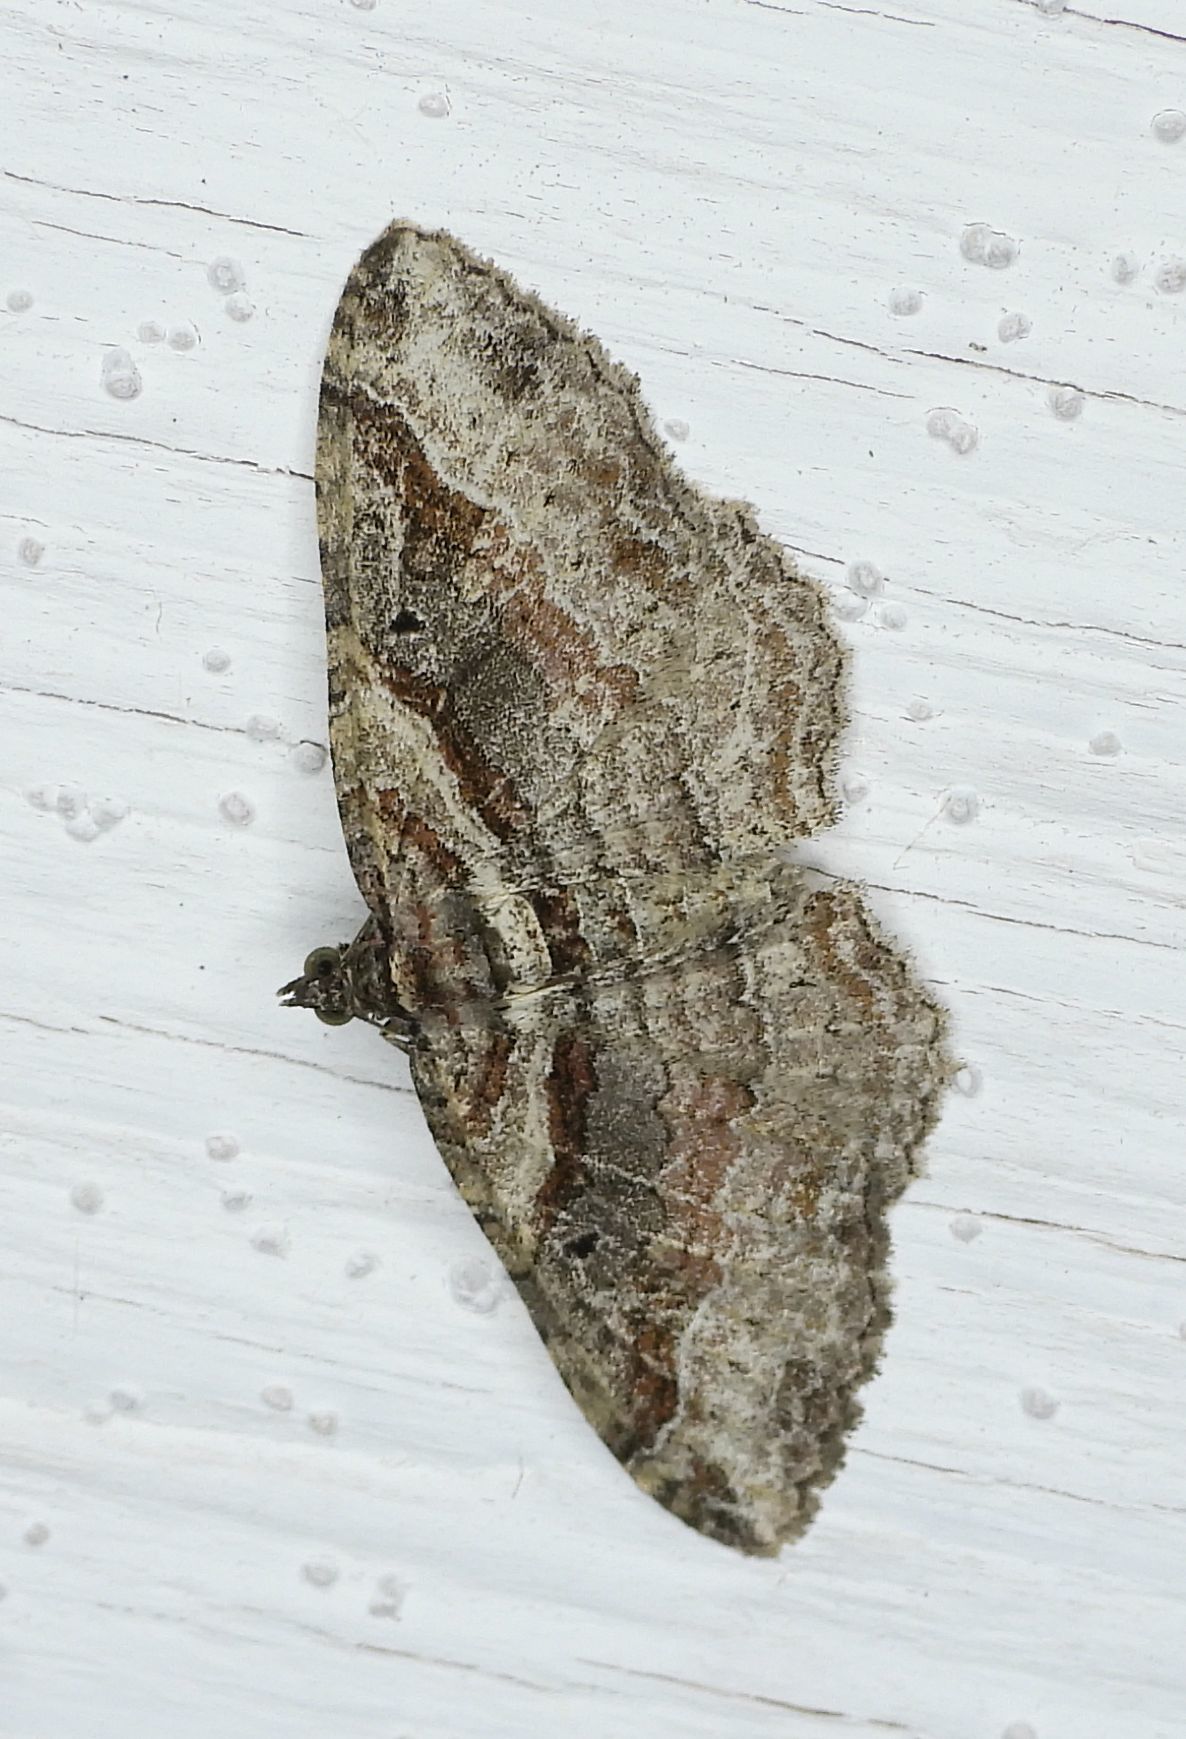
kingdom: Animalia
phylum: Arthropoda
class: Insecta
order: Lepidoptera
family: Geometridae
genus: Costaconvexa
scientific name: Costaconvexa centrostrigaria
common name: Bent-line carpet
